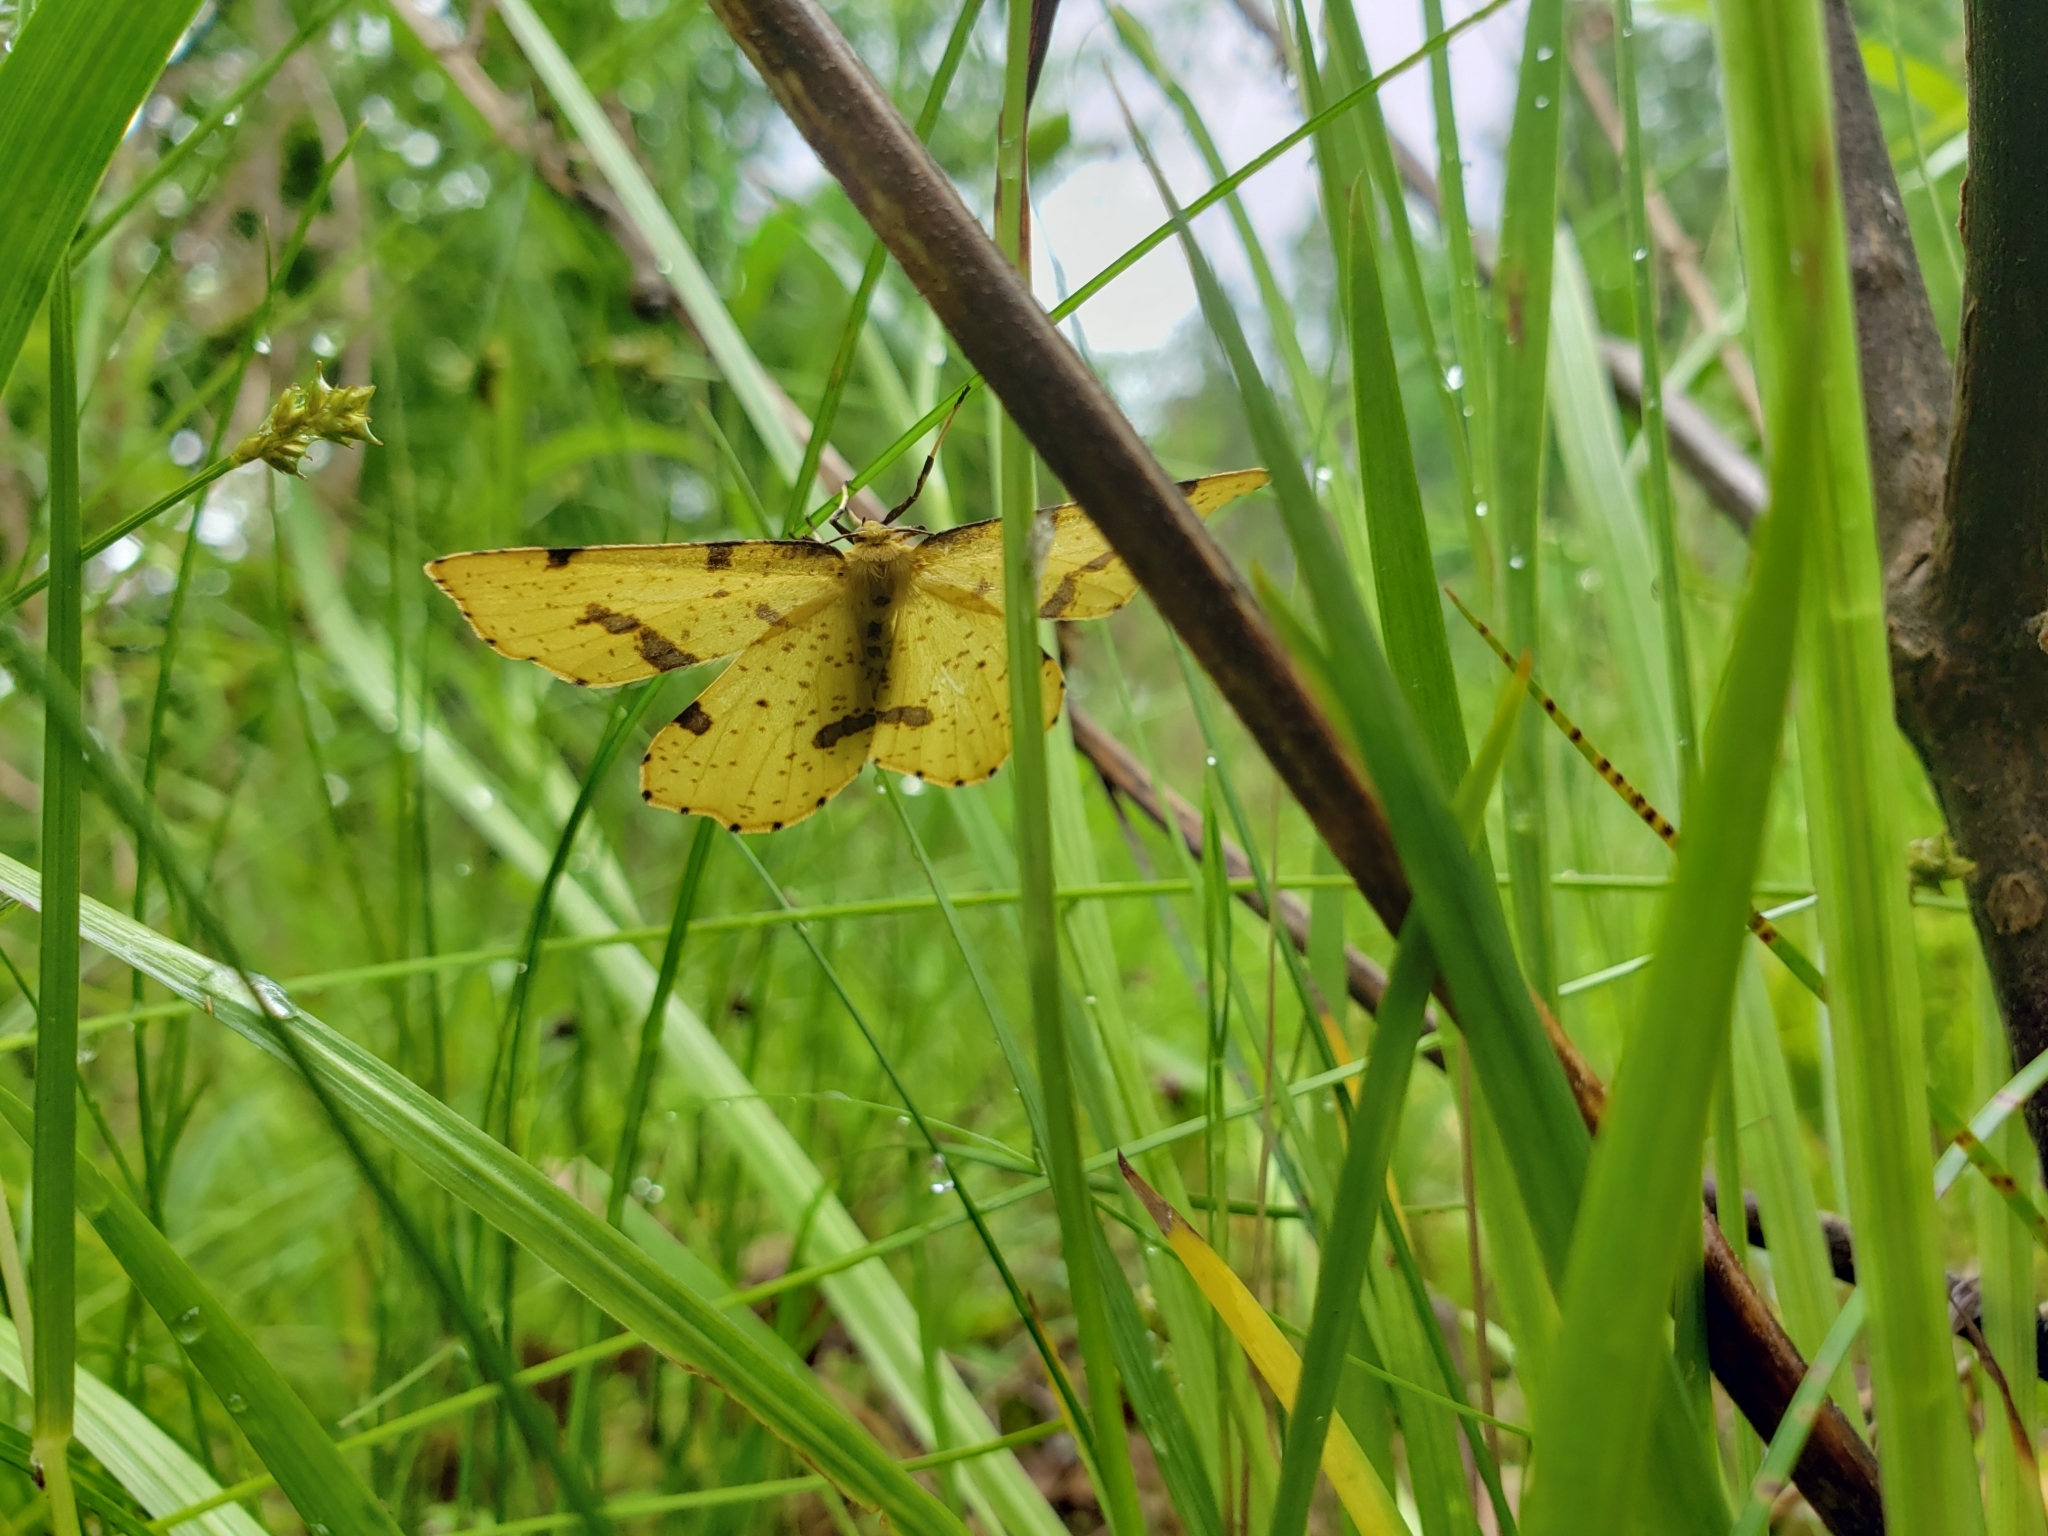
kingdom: Animalia
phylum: Arthropoda
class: Insecta
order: Lepidoptera
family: Geometridae
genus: Xanthotype
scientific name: Xanthotype
